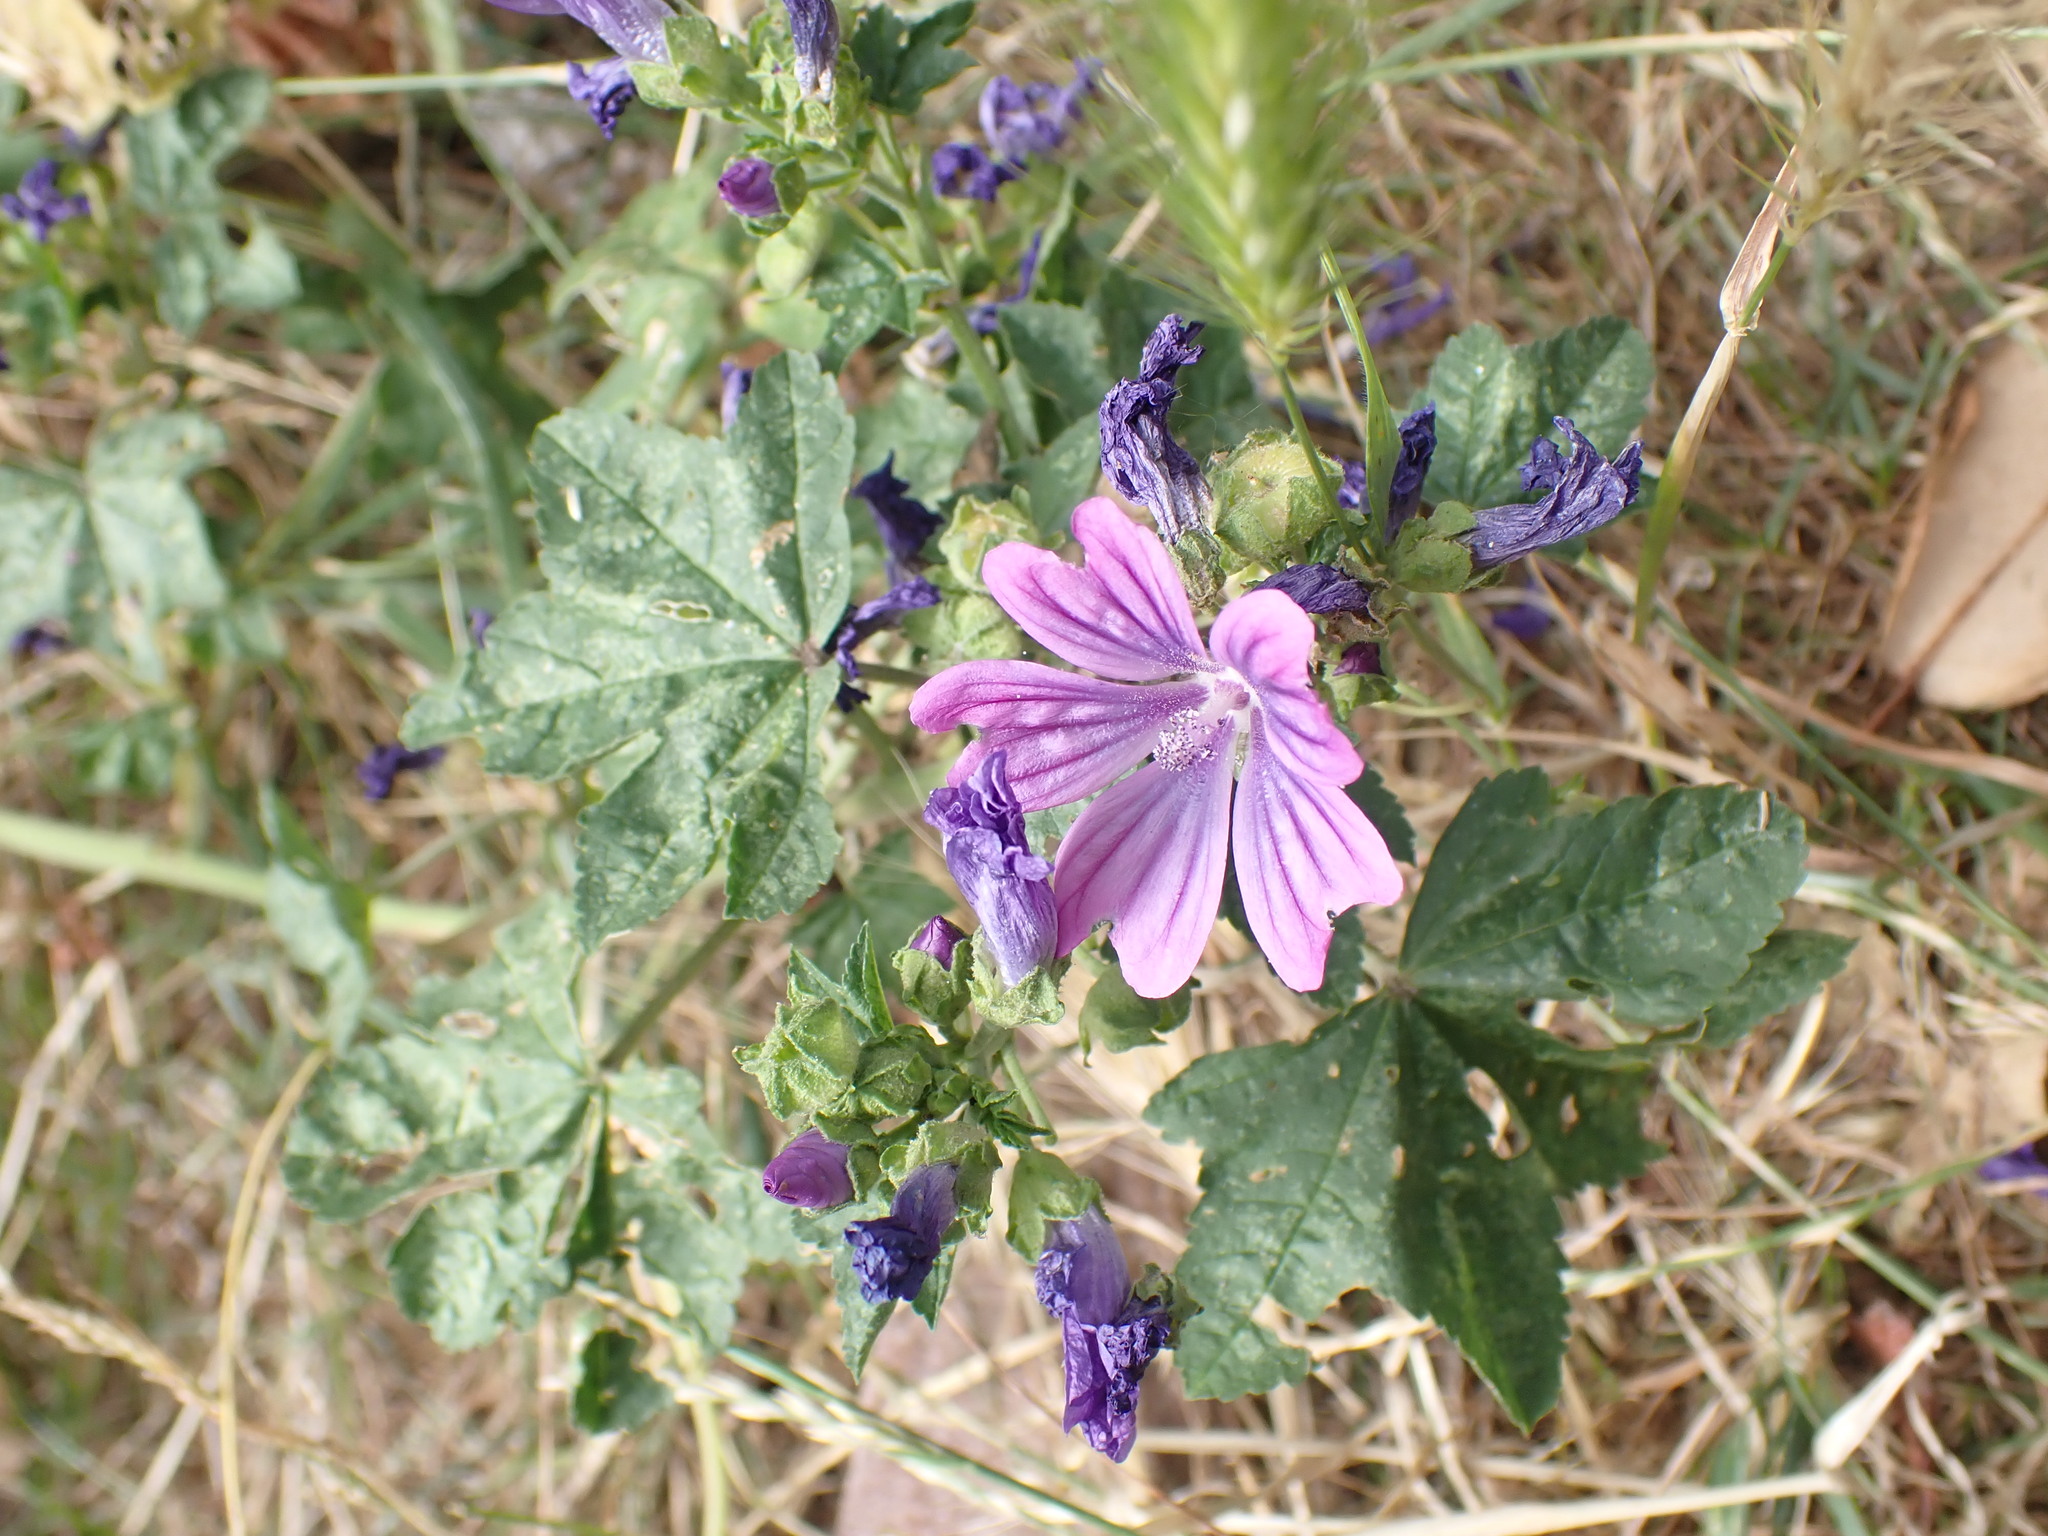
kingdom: Plantae
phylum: Tracheophyta
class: Magnoliopsida
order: Malvales
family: Malvaceae
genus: Malva
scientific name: Malva sylvestris
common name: Common mallow
